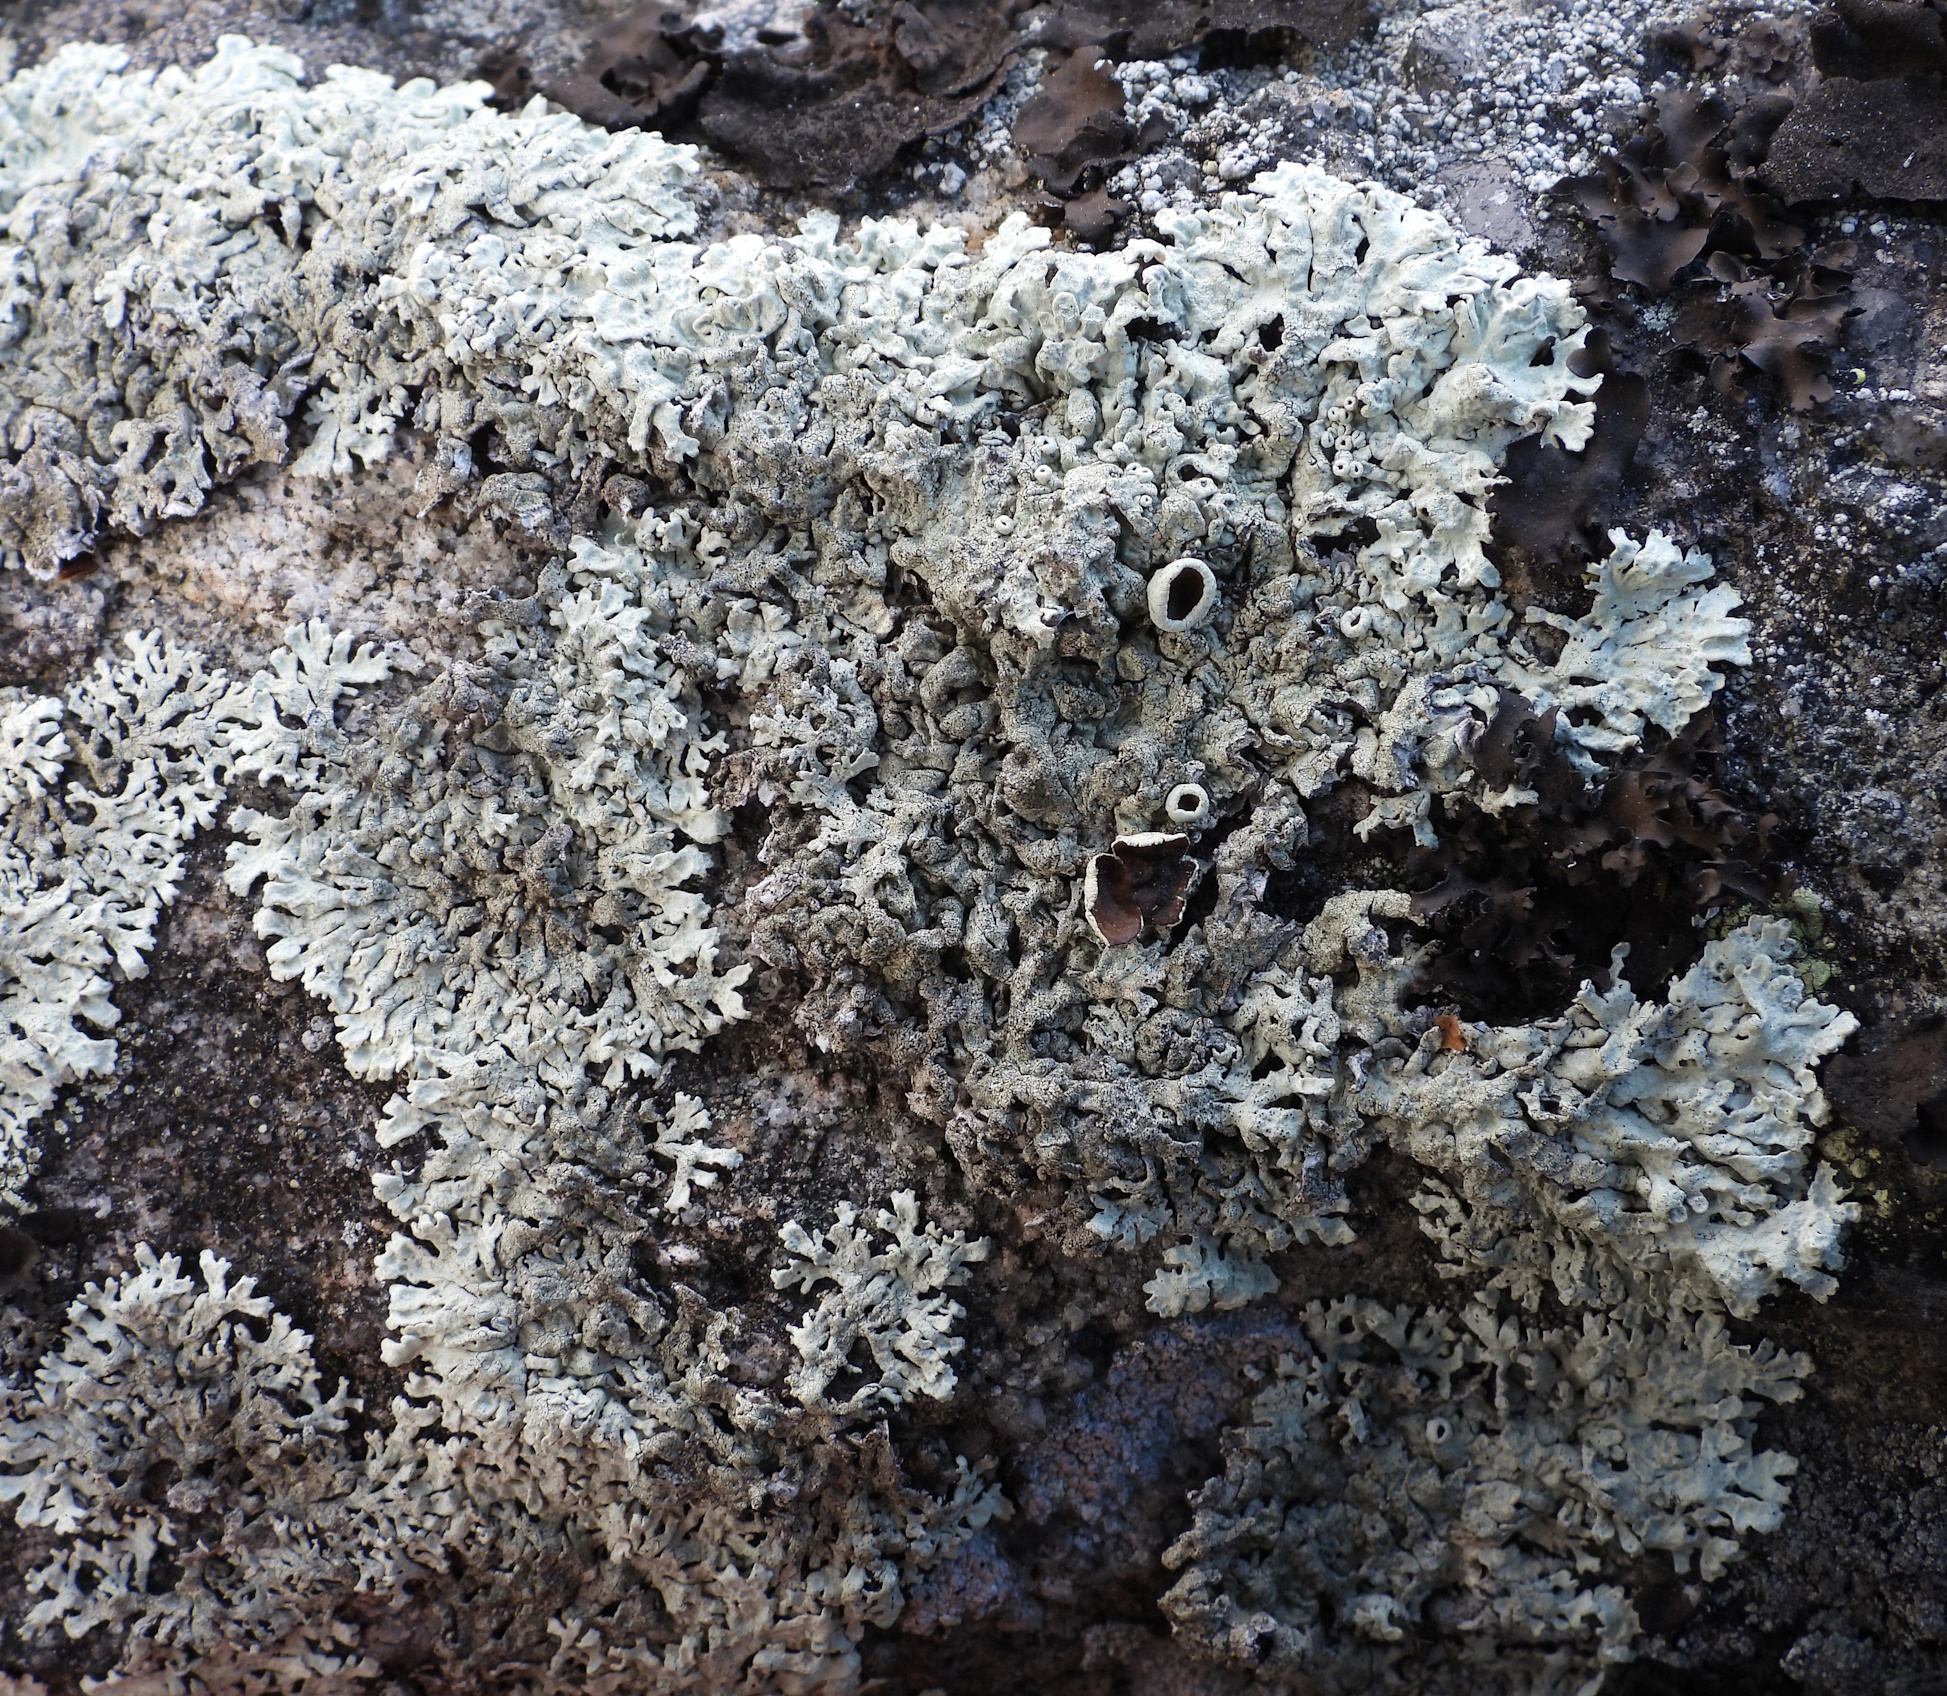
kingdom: Fungi
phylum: Ascomycota
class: Lecanoromycetes
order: Lecanorales
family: Parmeliaceae
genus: Arctoparmelia
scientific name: Arctoparmelia centrifuga
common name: Concentric ring lichen
